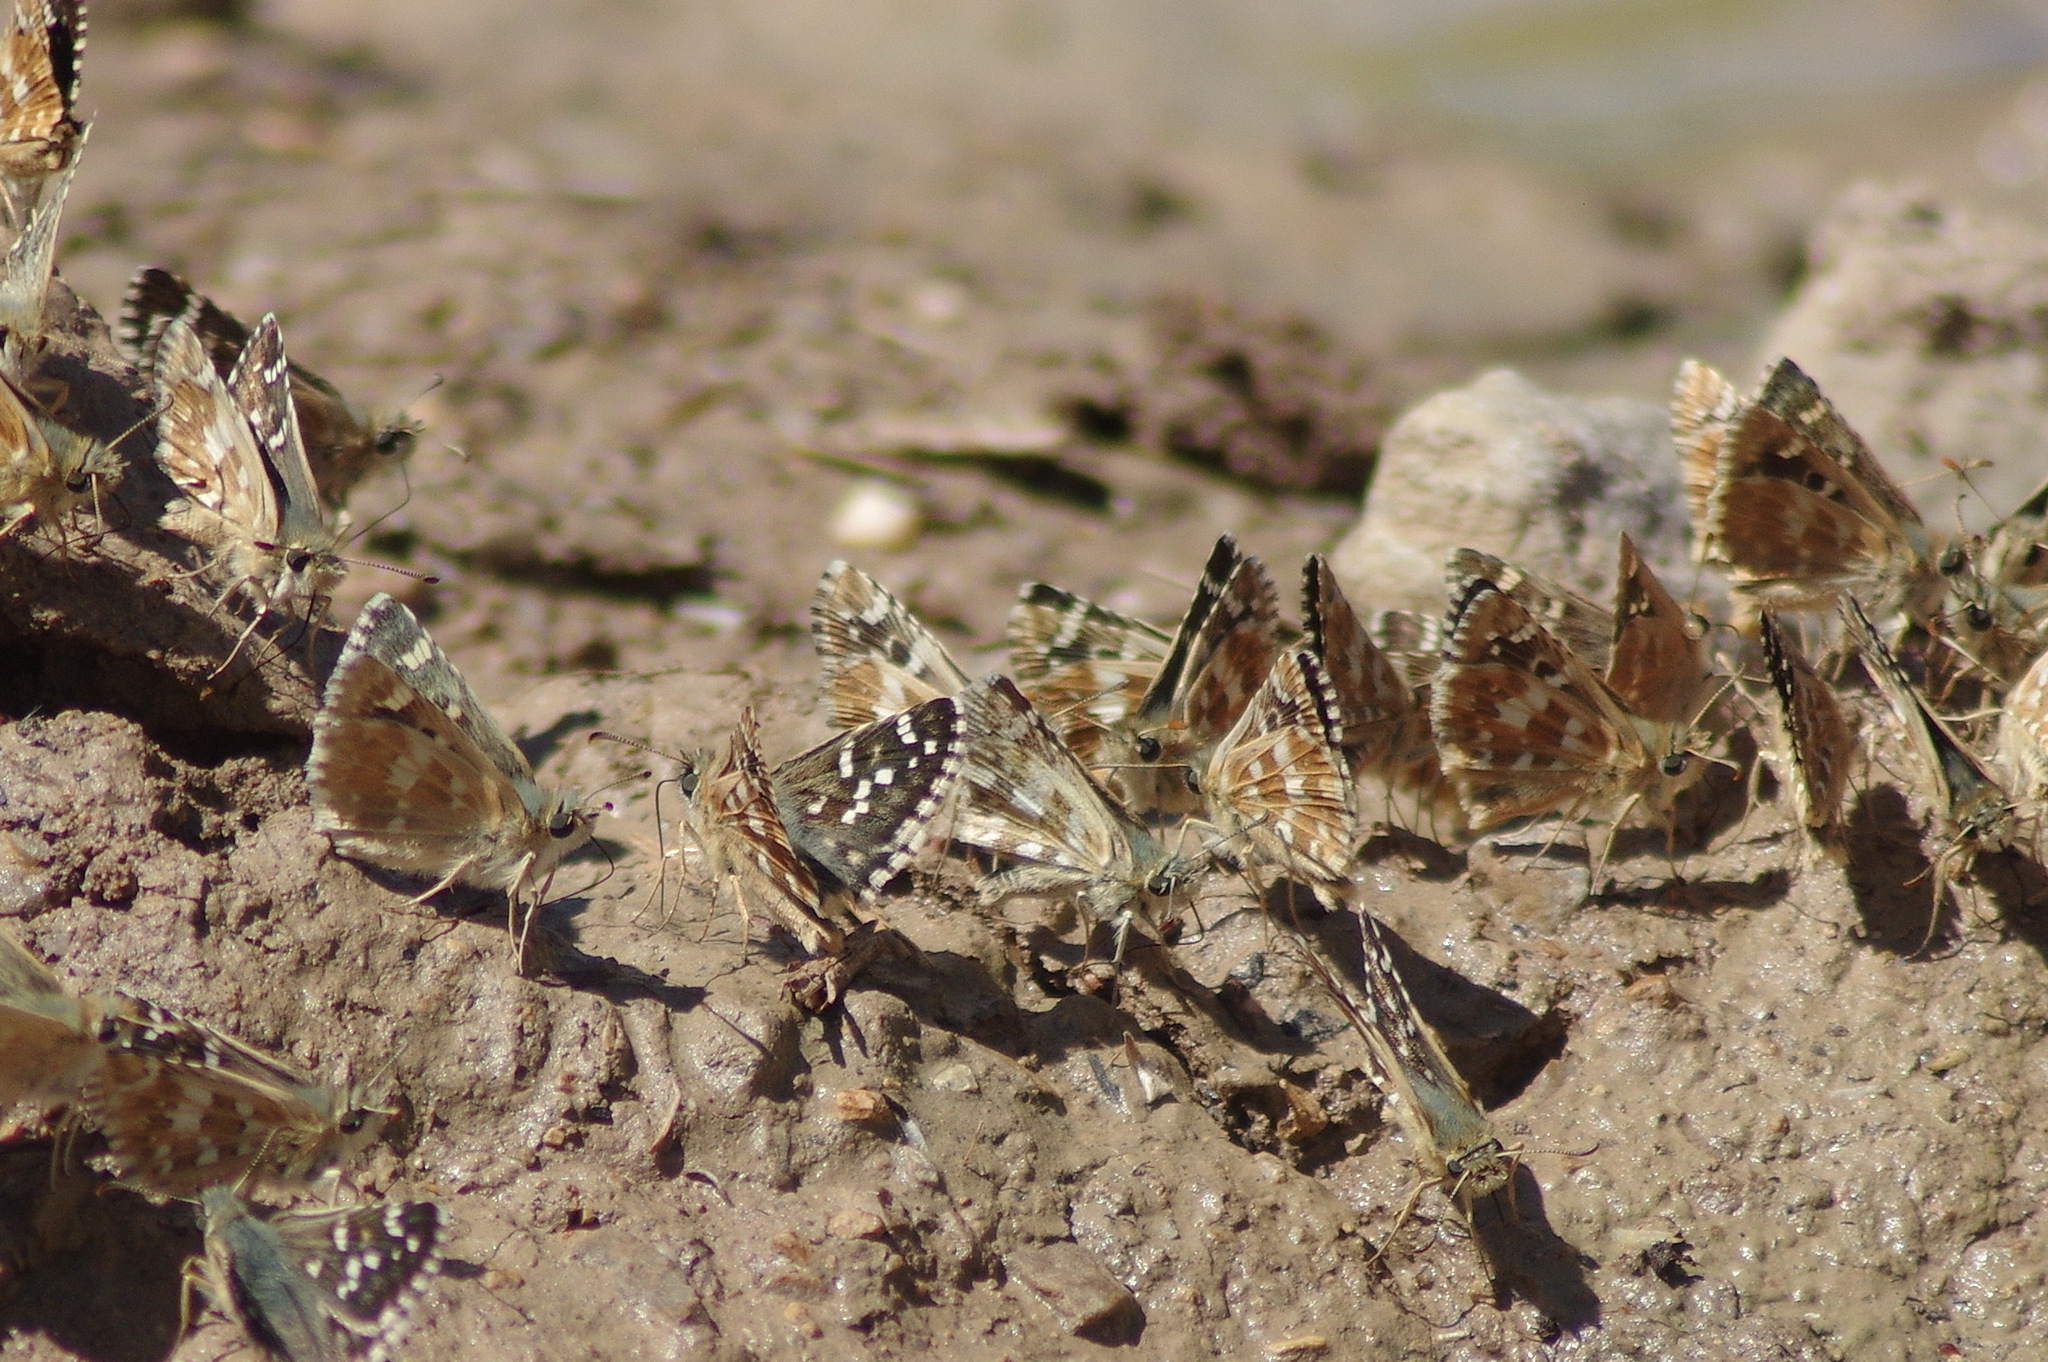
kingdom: Animalia
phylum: Arthropoda
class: Insecta
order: Lepidoptera
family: Hesperiidae
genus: Pyrgus
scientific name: Pyrgus carlinae
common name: Carline skipper
